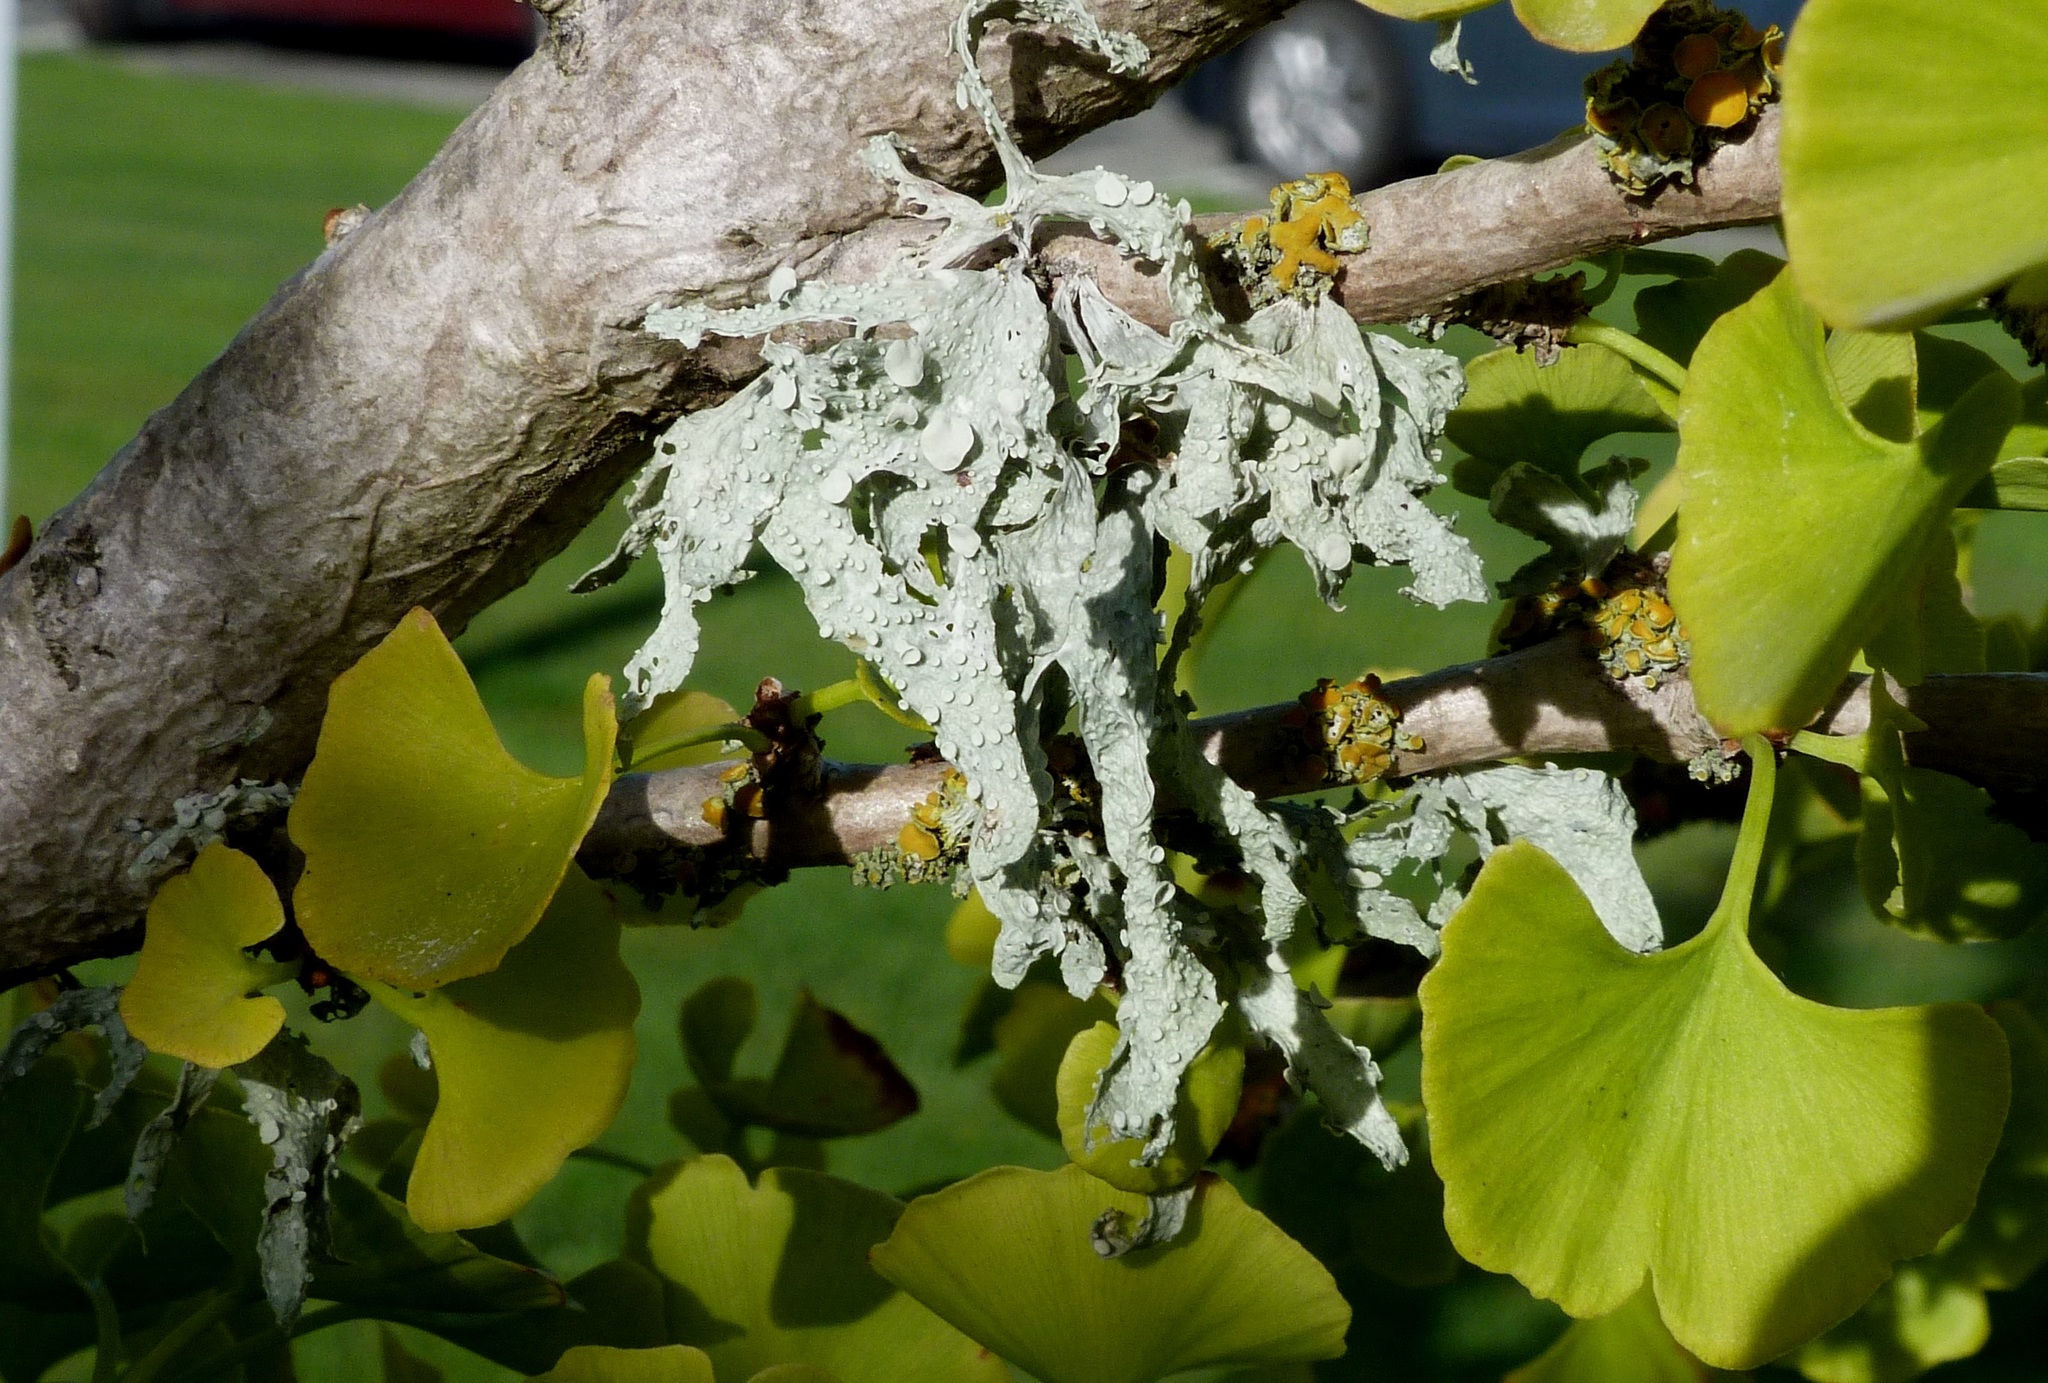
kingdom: Fungi
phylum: Ascomycota
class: Lecanoromycetes
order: Lecanorales
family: Ramalinaceae
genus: Ramalina
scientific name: Ramalina celastri
